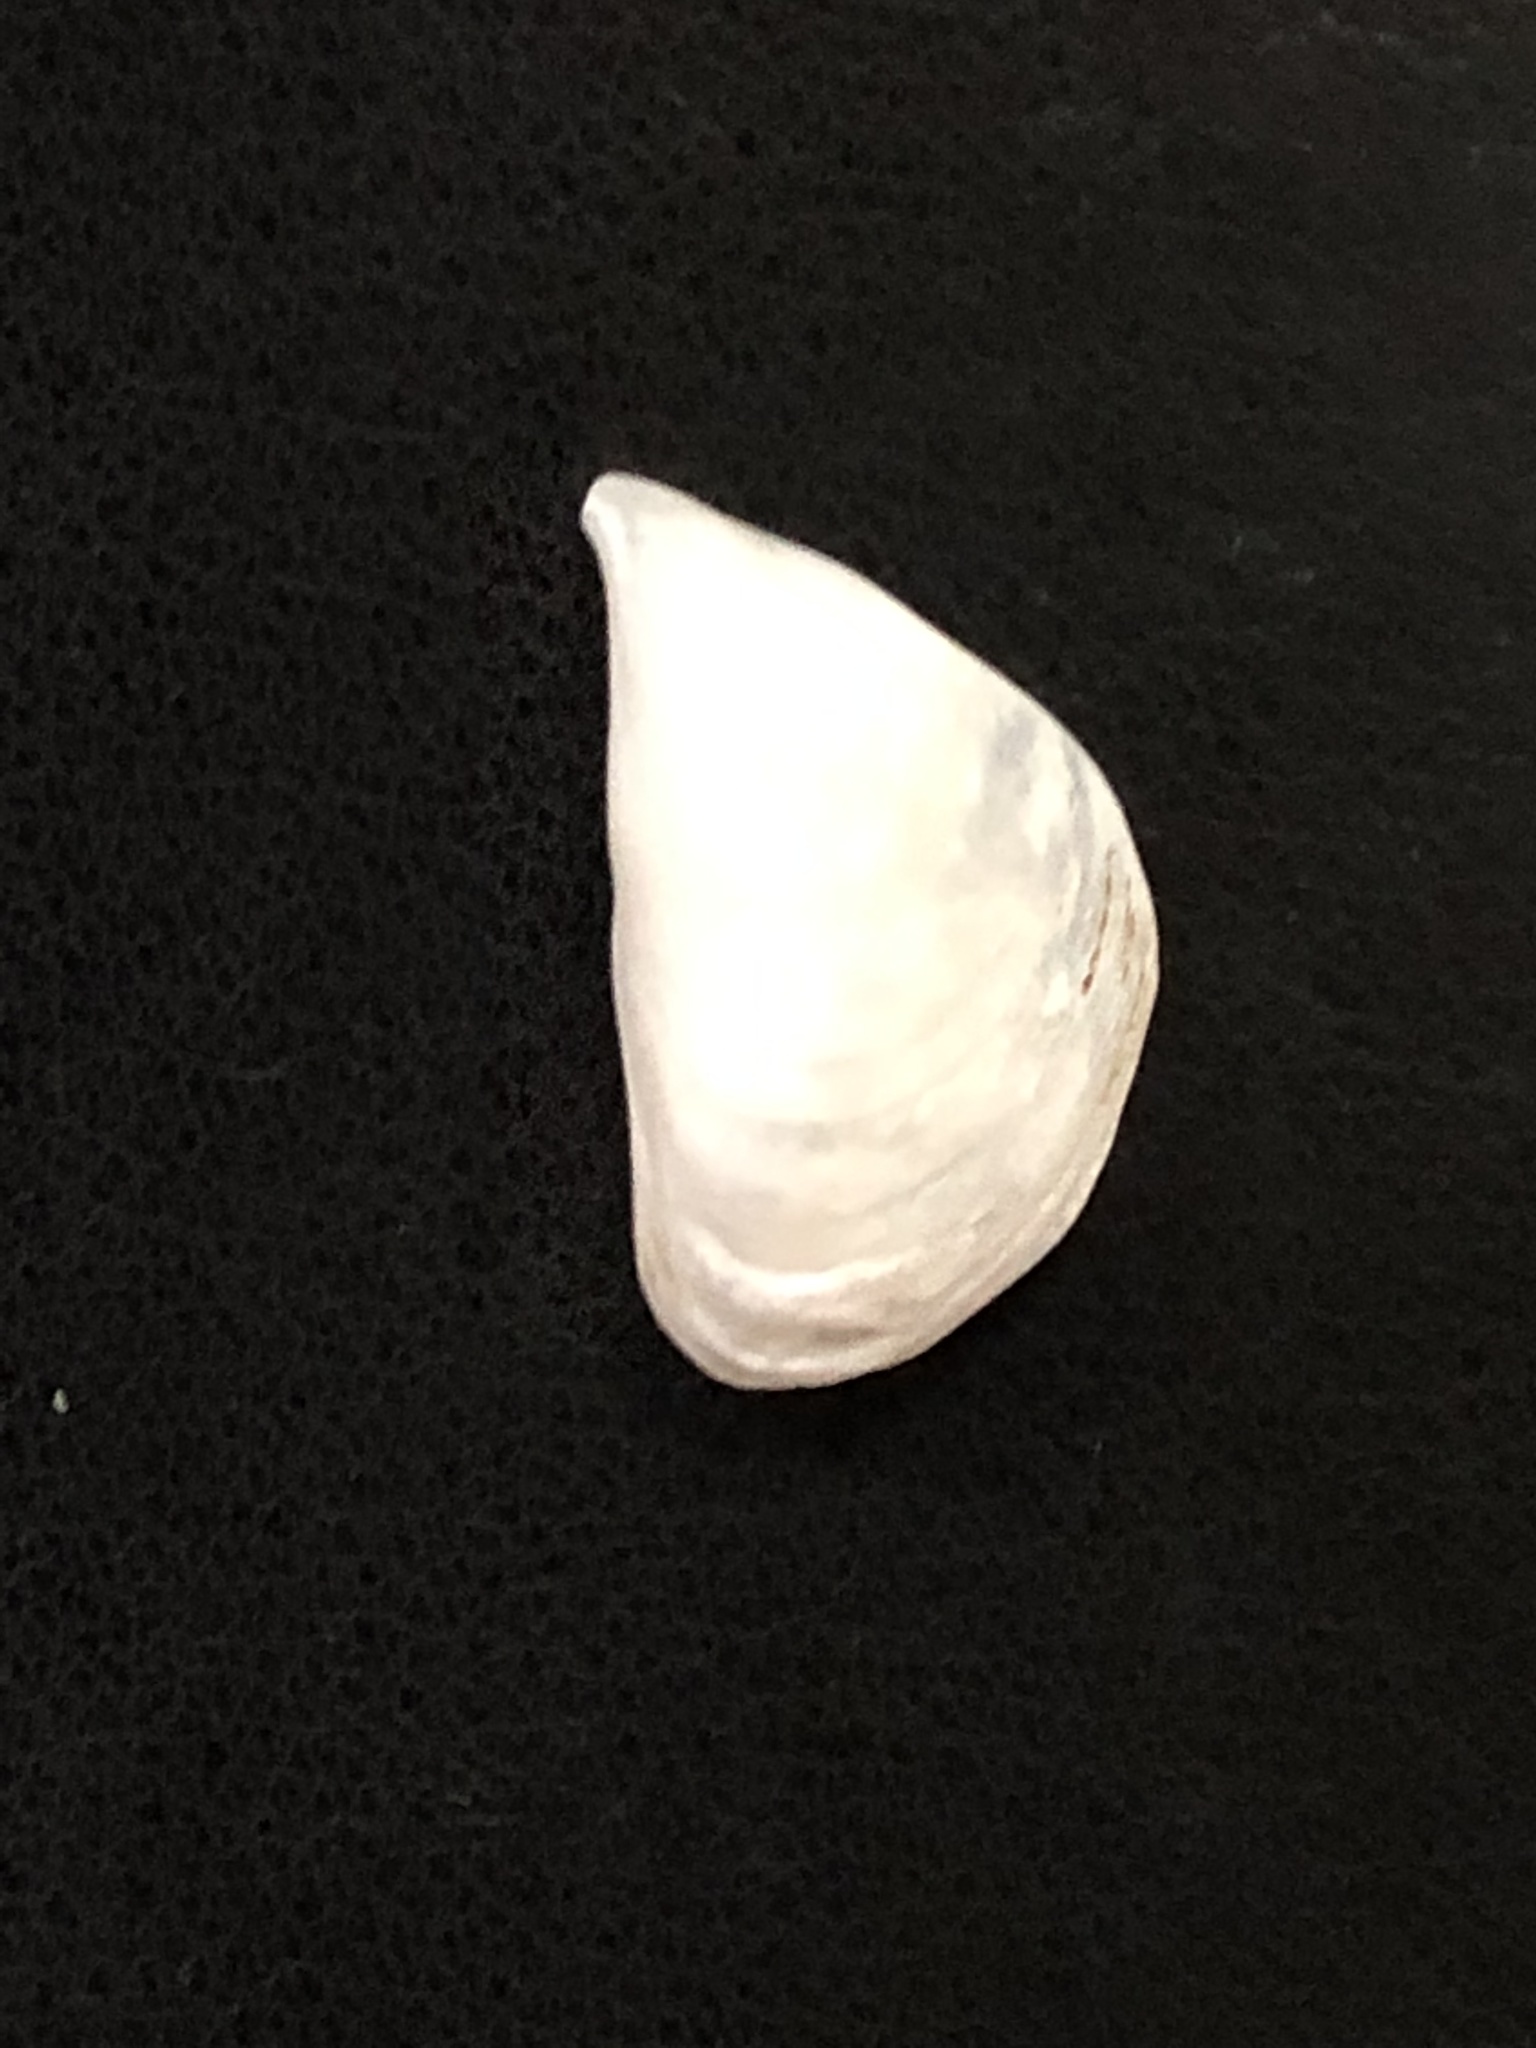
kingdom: Animalia
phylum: Mollusca
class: Bivalvia
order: Myida
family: Dreissenidae
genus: Dreissena
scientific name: Dreissena bugensis
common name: Quagga mussel
